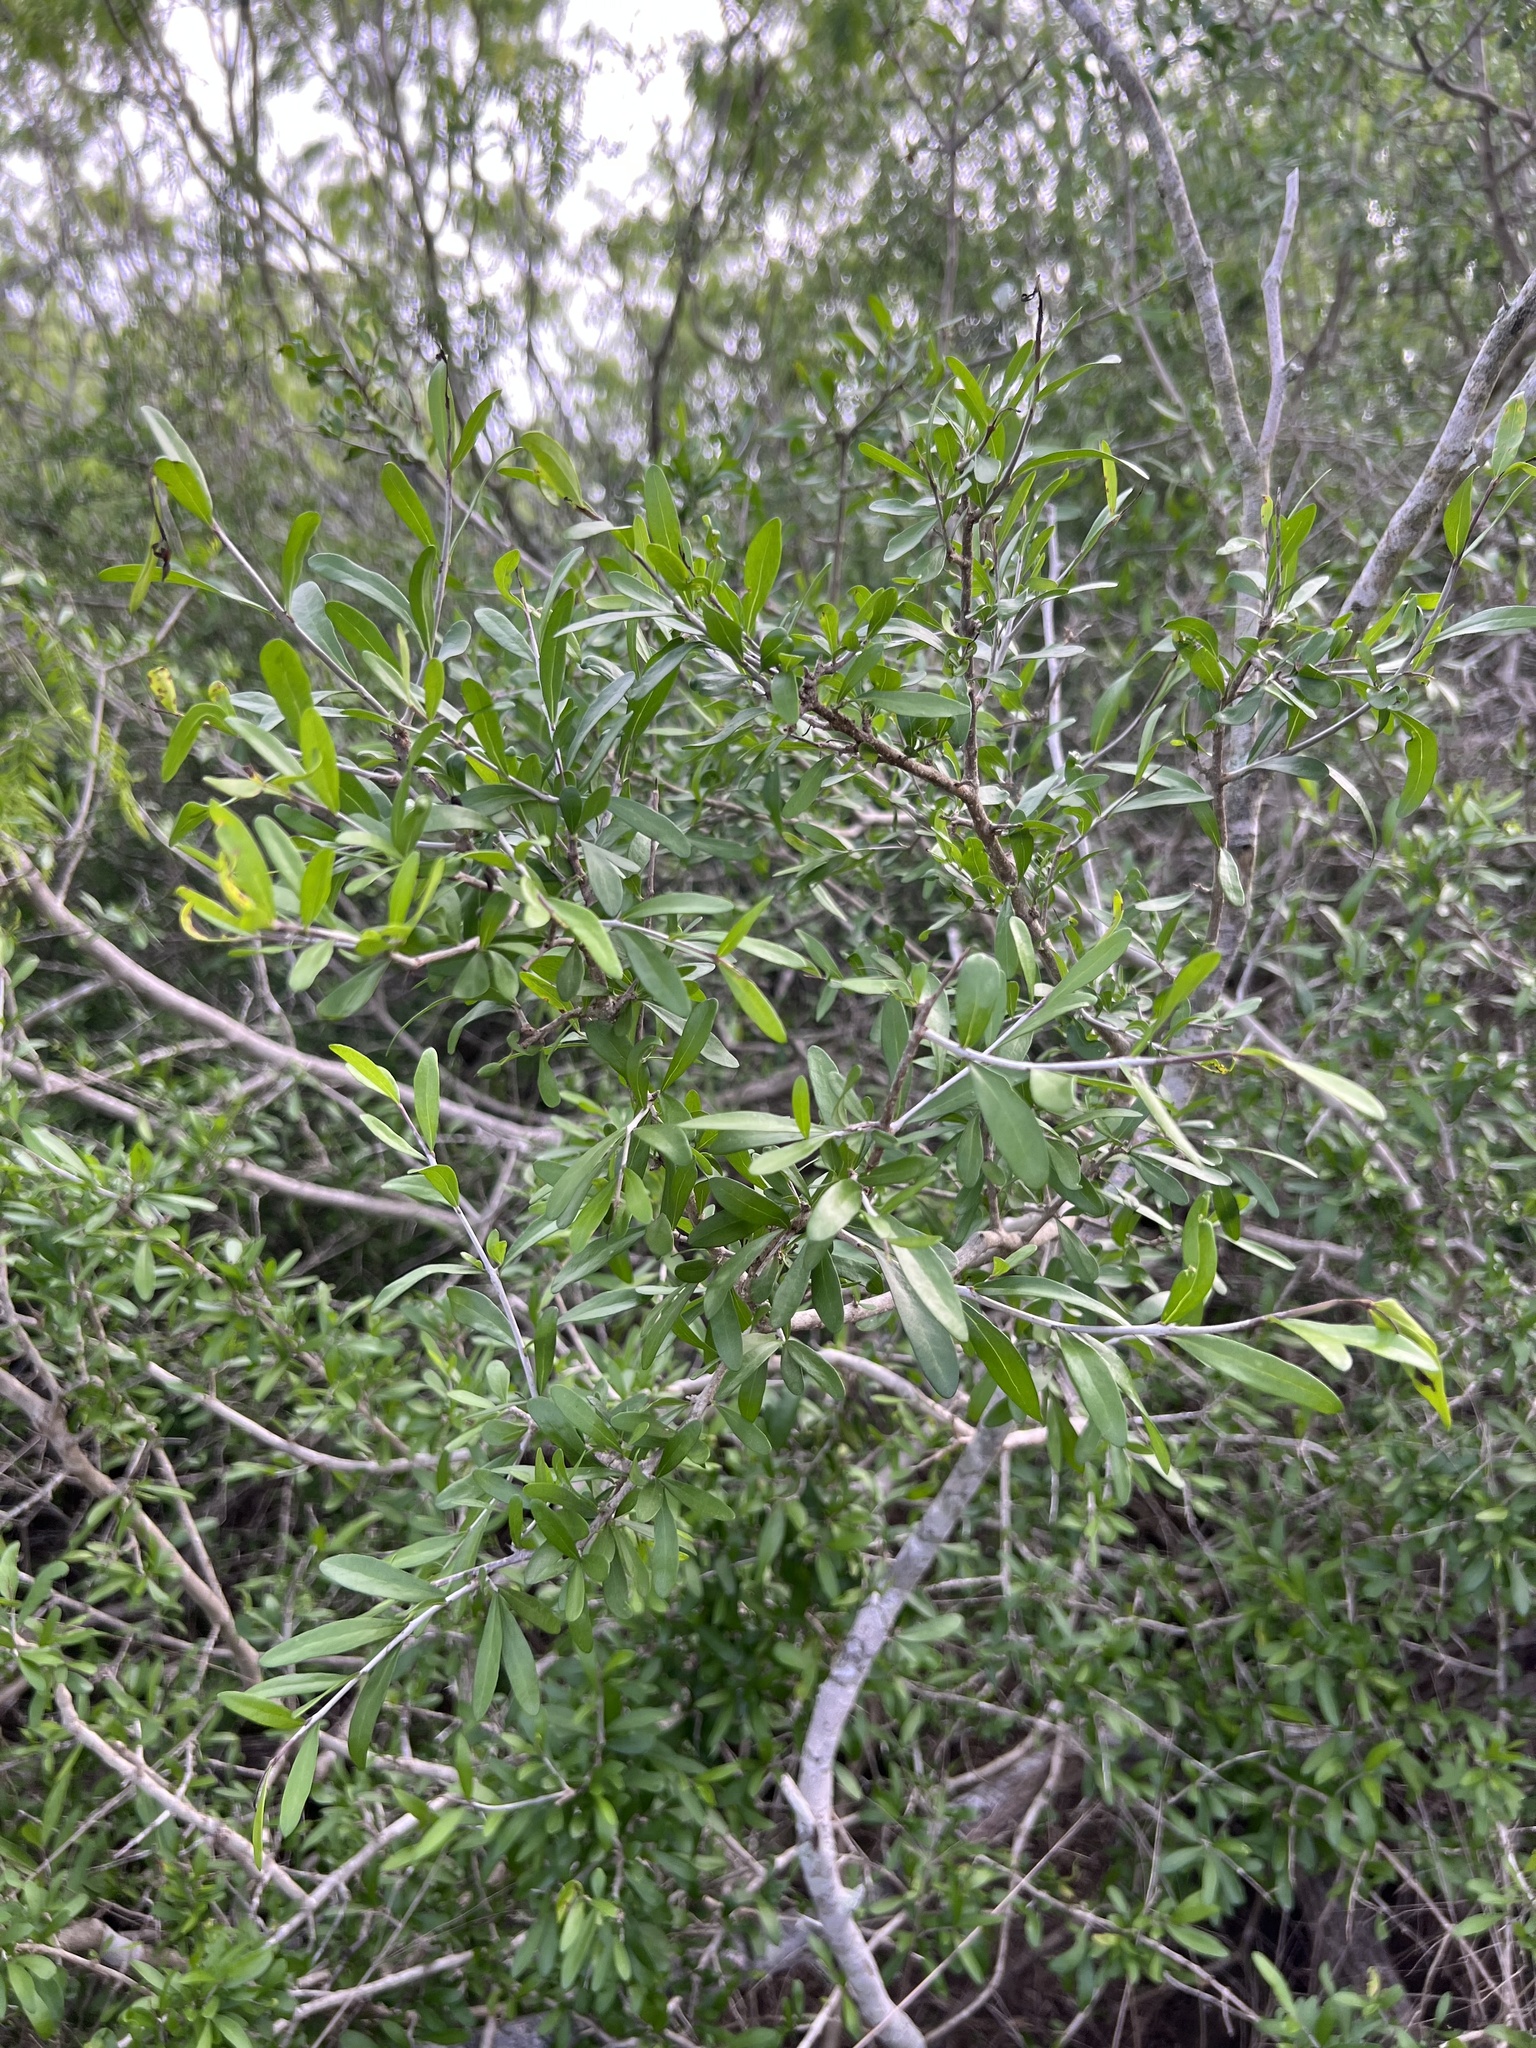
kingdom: Plantae
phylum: Tracheophyta
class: Magnoliopsida
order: Lamiales
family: Oleaceae
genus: Forestiera
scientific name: Forestiera angustifolia
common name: Elbowbush
